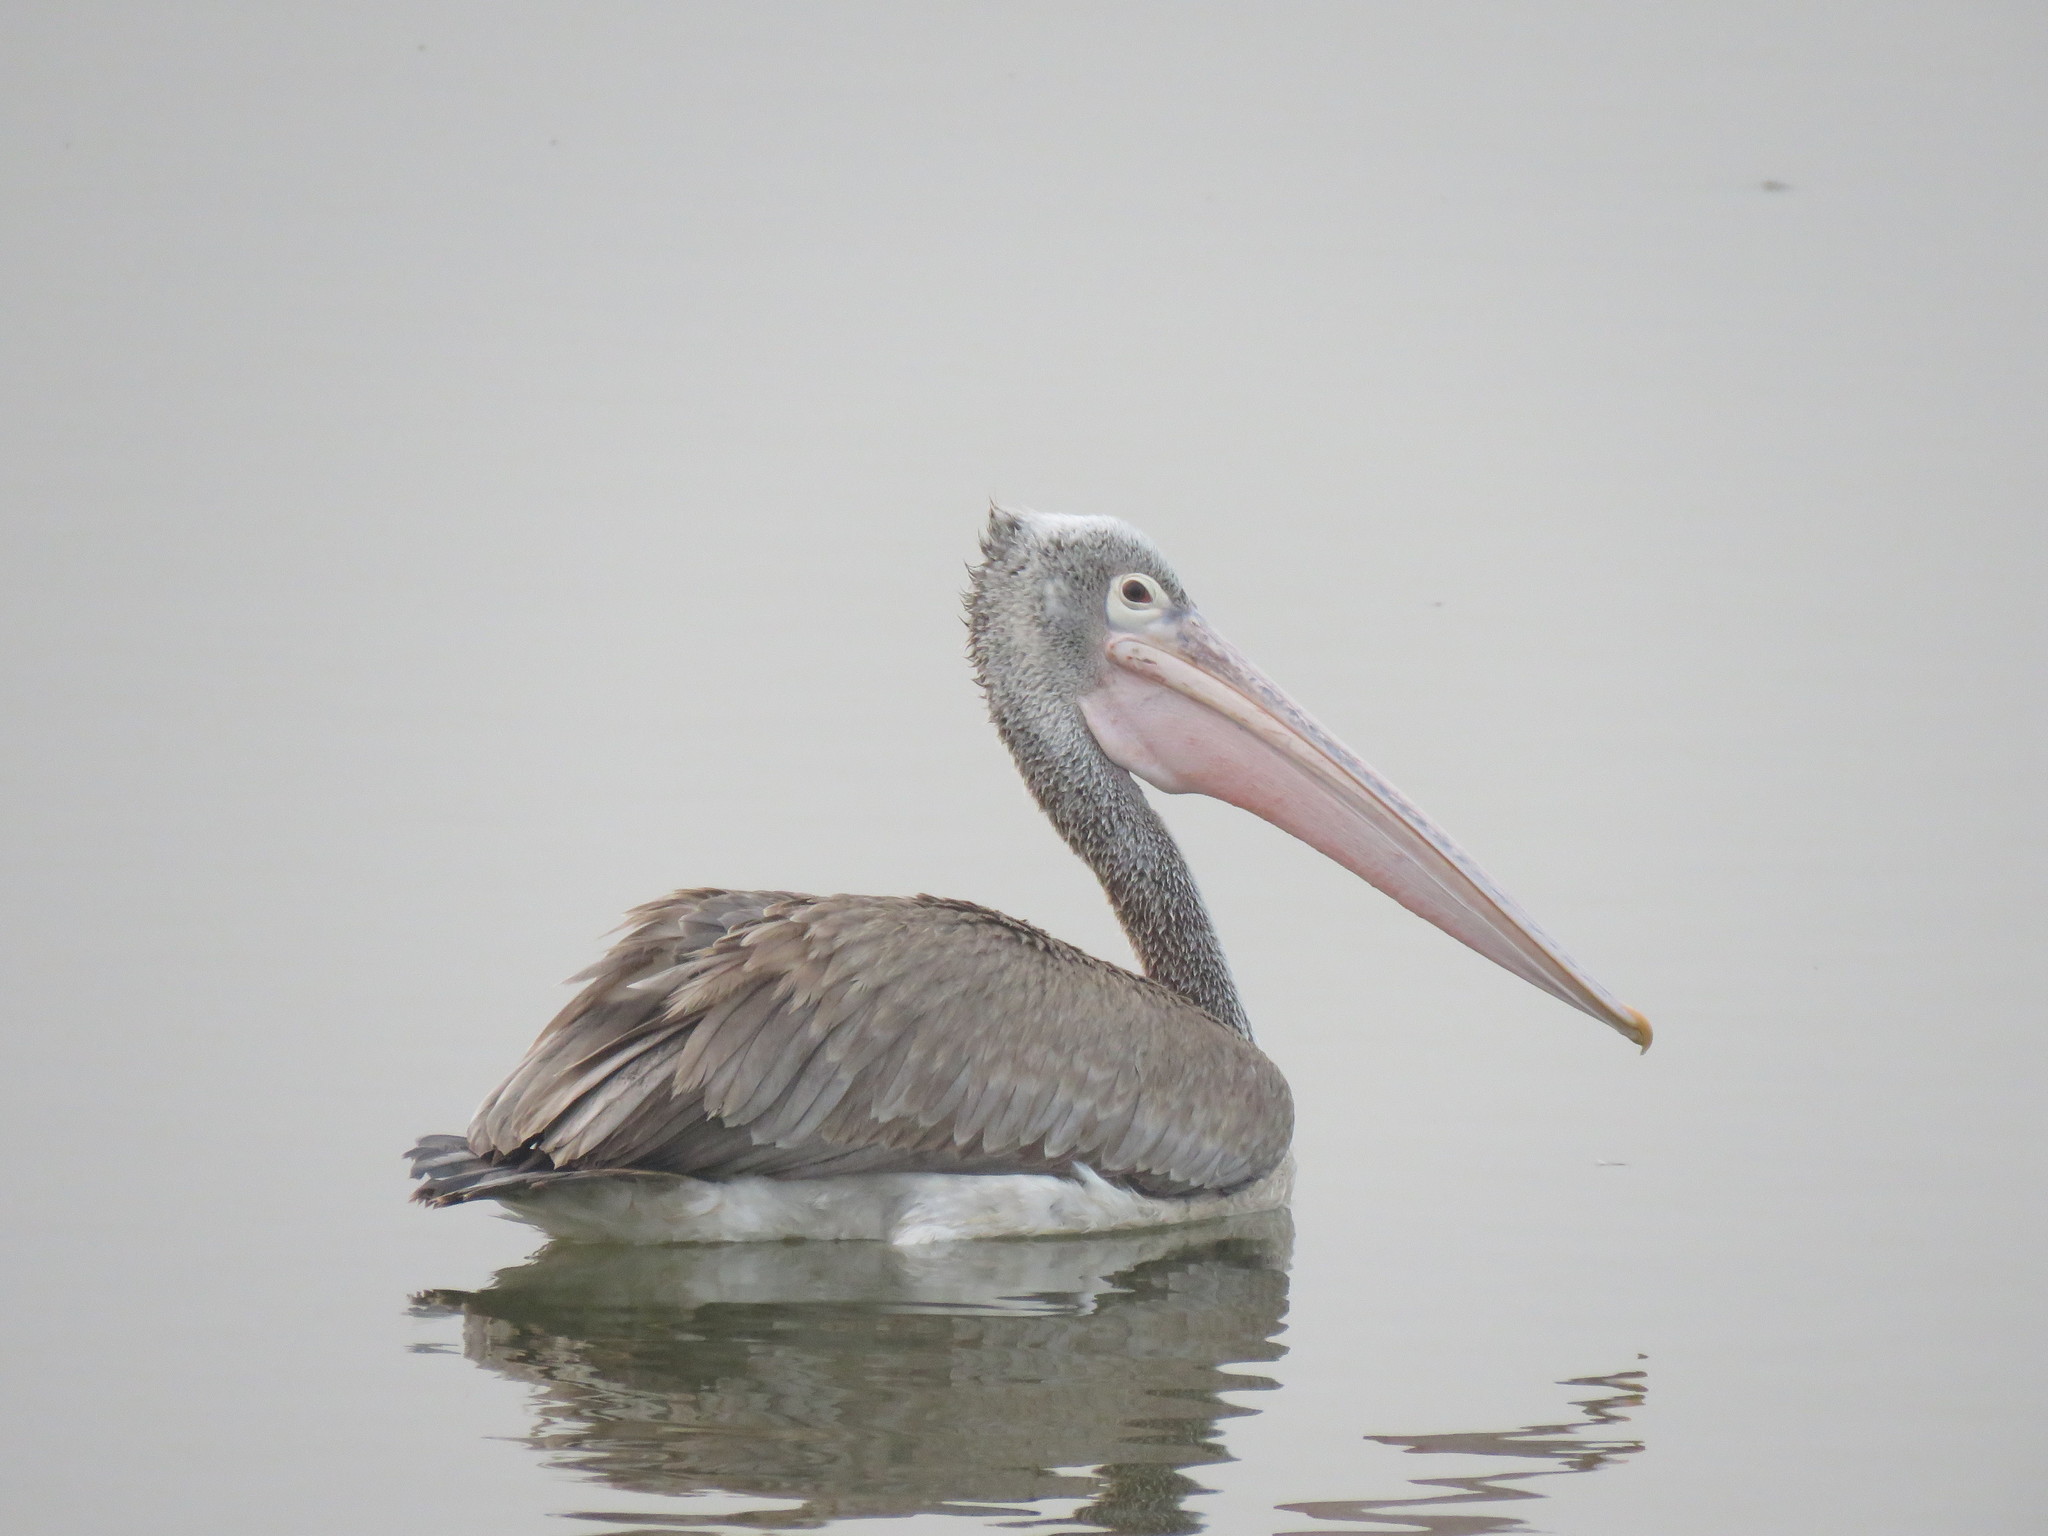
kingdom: Animalia
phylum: Chordata
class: Aves
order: Pelecaniformes
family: Pelecanidae
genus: Pelecanus
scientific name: Pelecanus philippensis
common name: Spot-billed pelican
